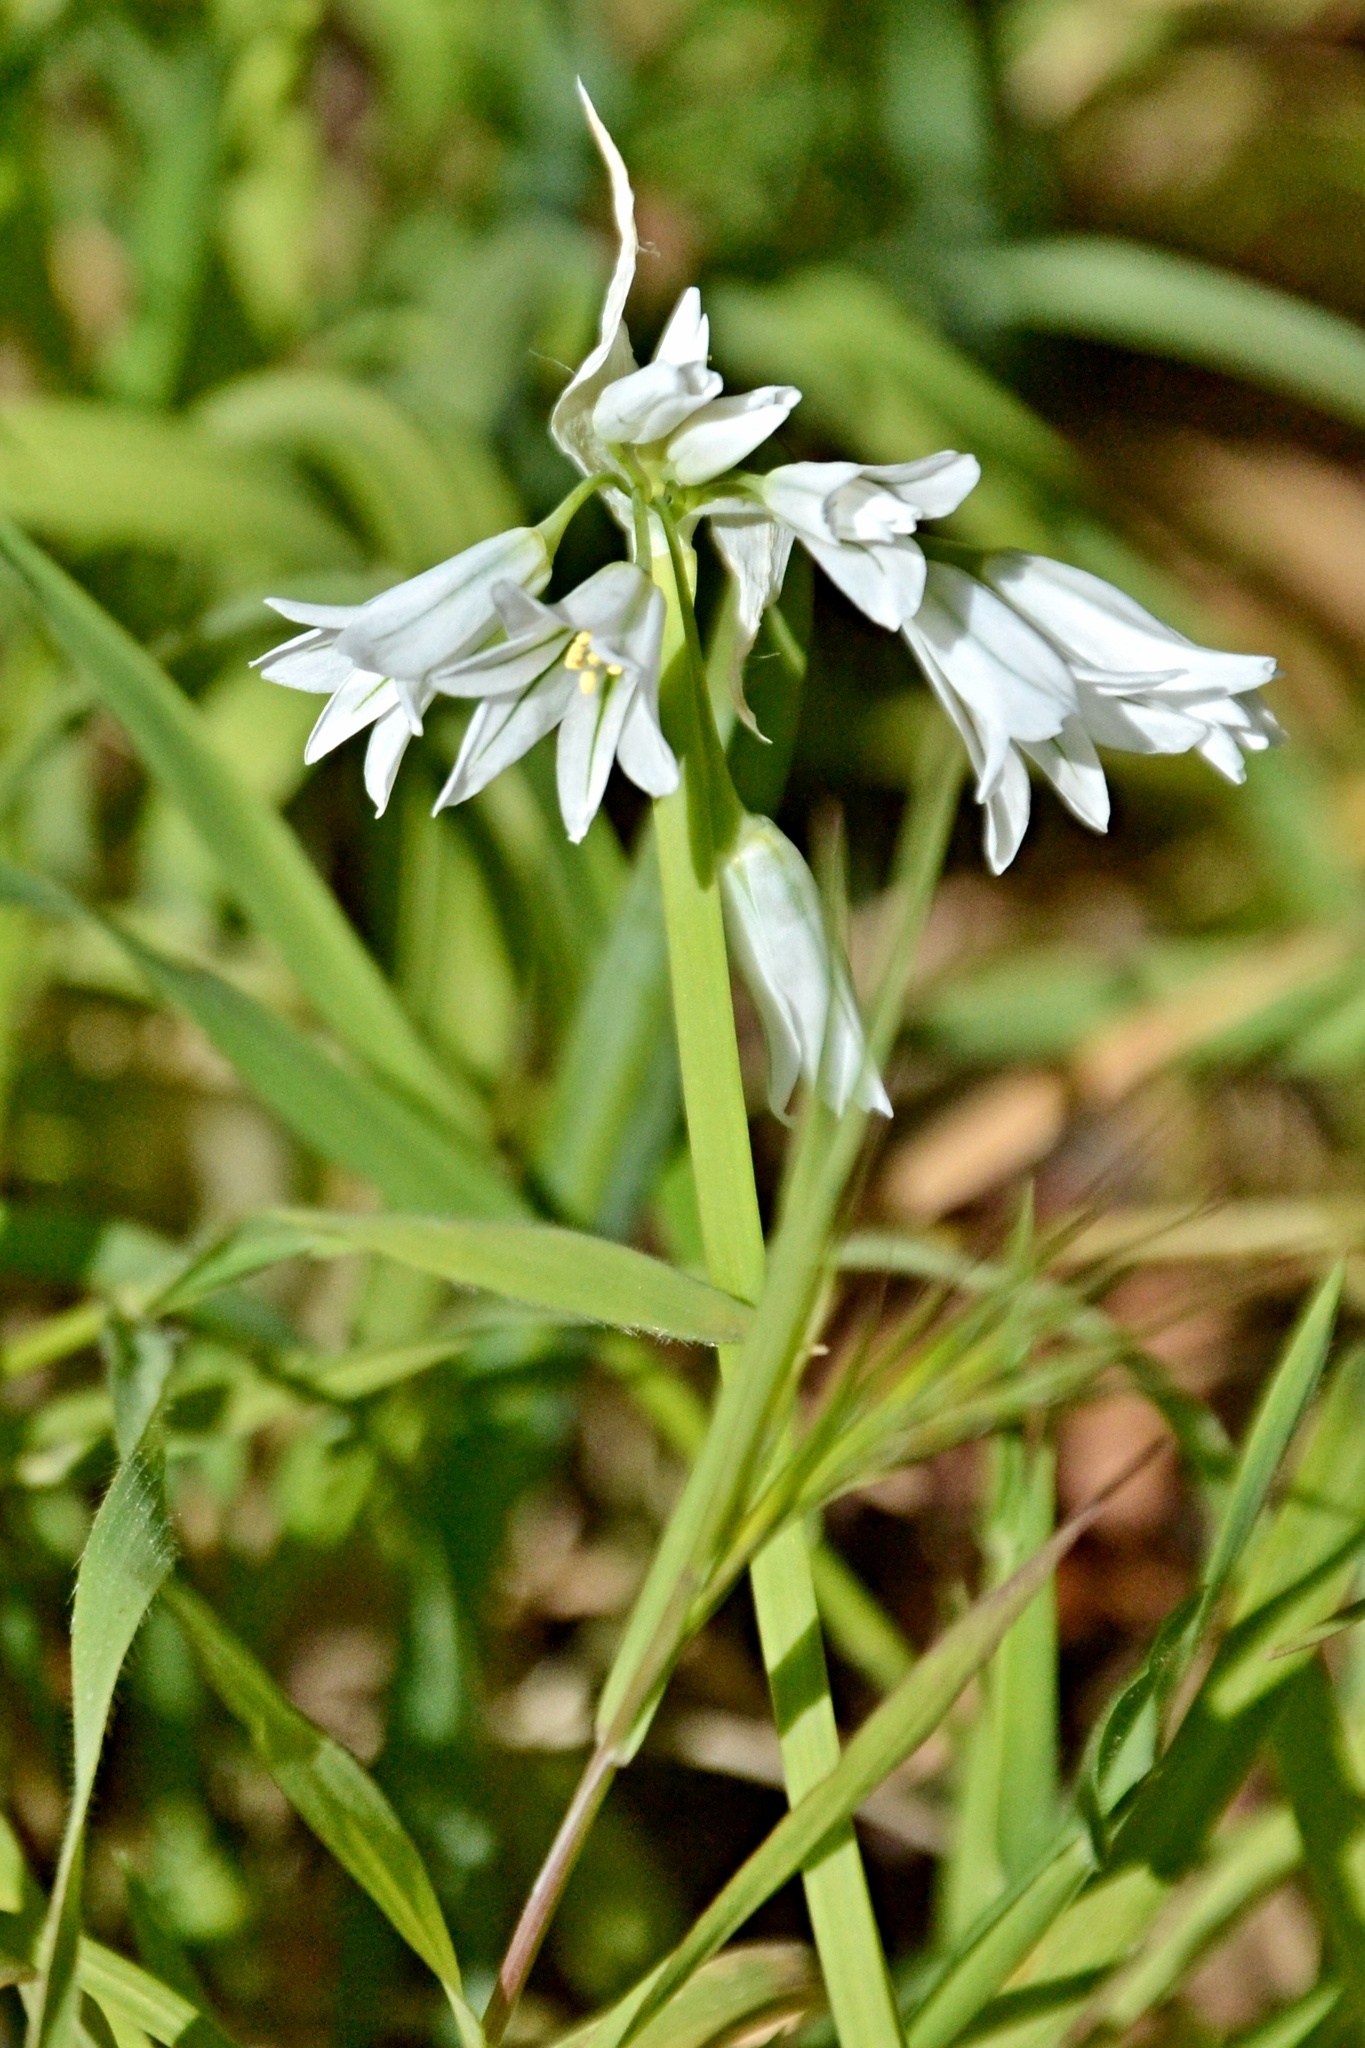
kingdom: Plantae
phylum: Tracheophyta
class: Liliopsida
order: Asparagales
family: Amaryllidaceae
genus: Allium
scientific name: Allium triquetrum
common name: Three-cornered garlic
